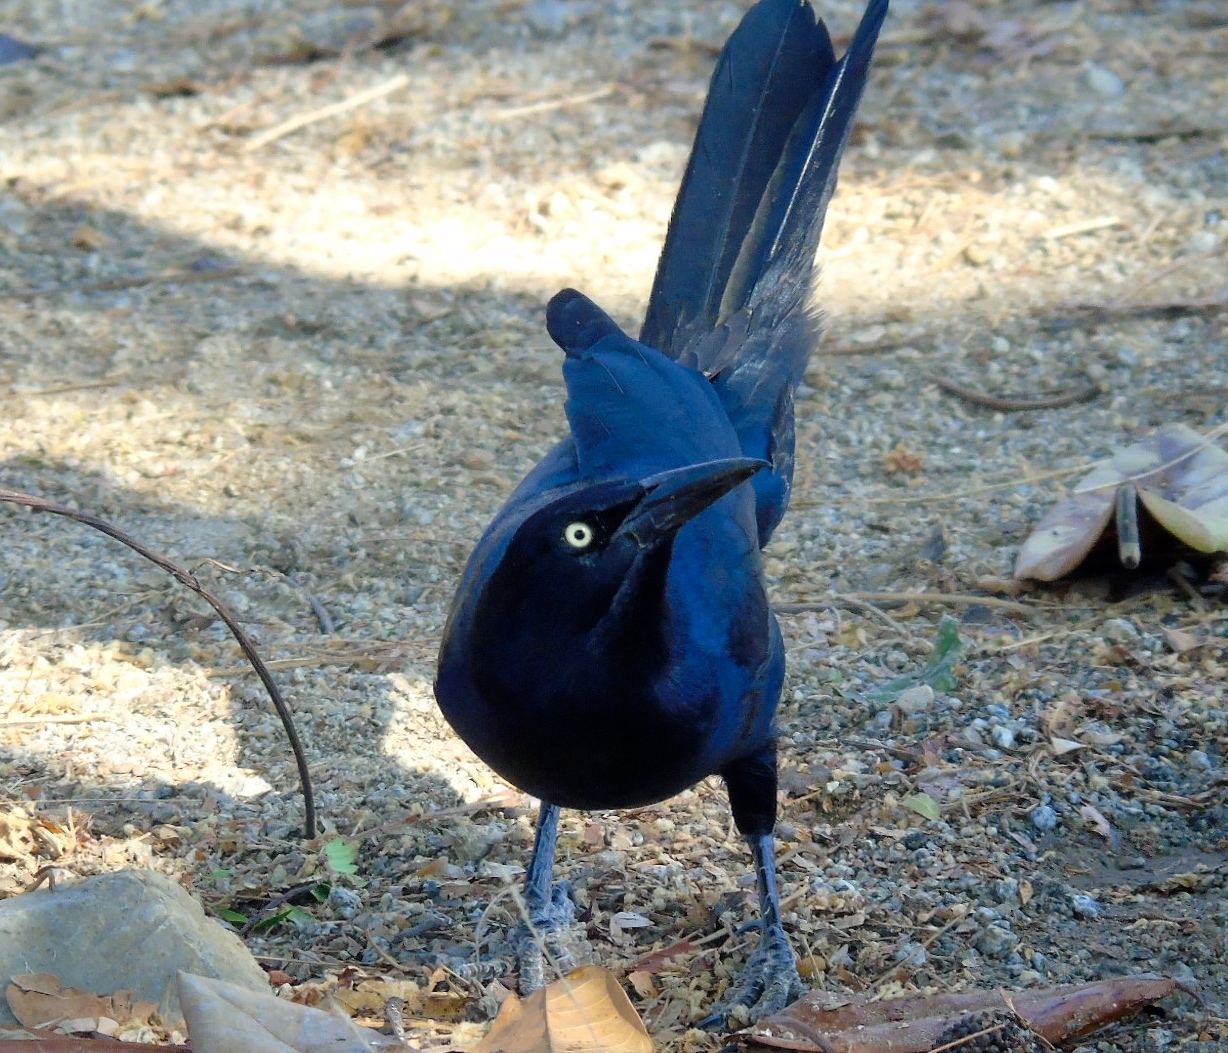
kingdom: Animalia
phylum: Chordata
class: Aves
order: Passeriformes
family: Icteridae
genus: Quiscalus
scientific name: Quiscalus mexicanus
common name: Great-tailed grackle
